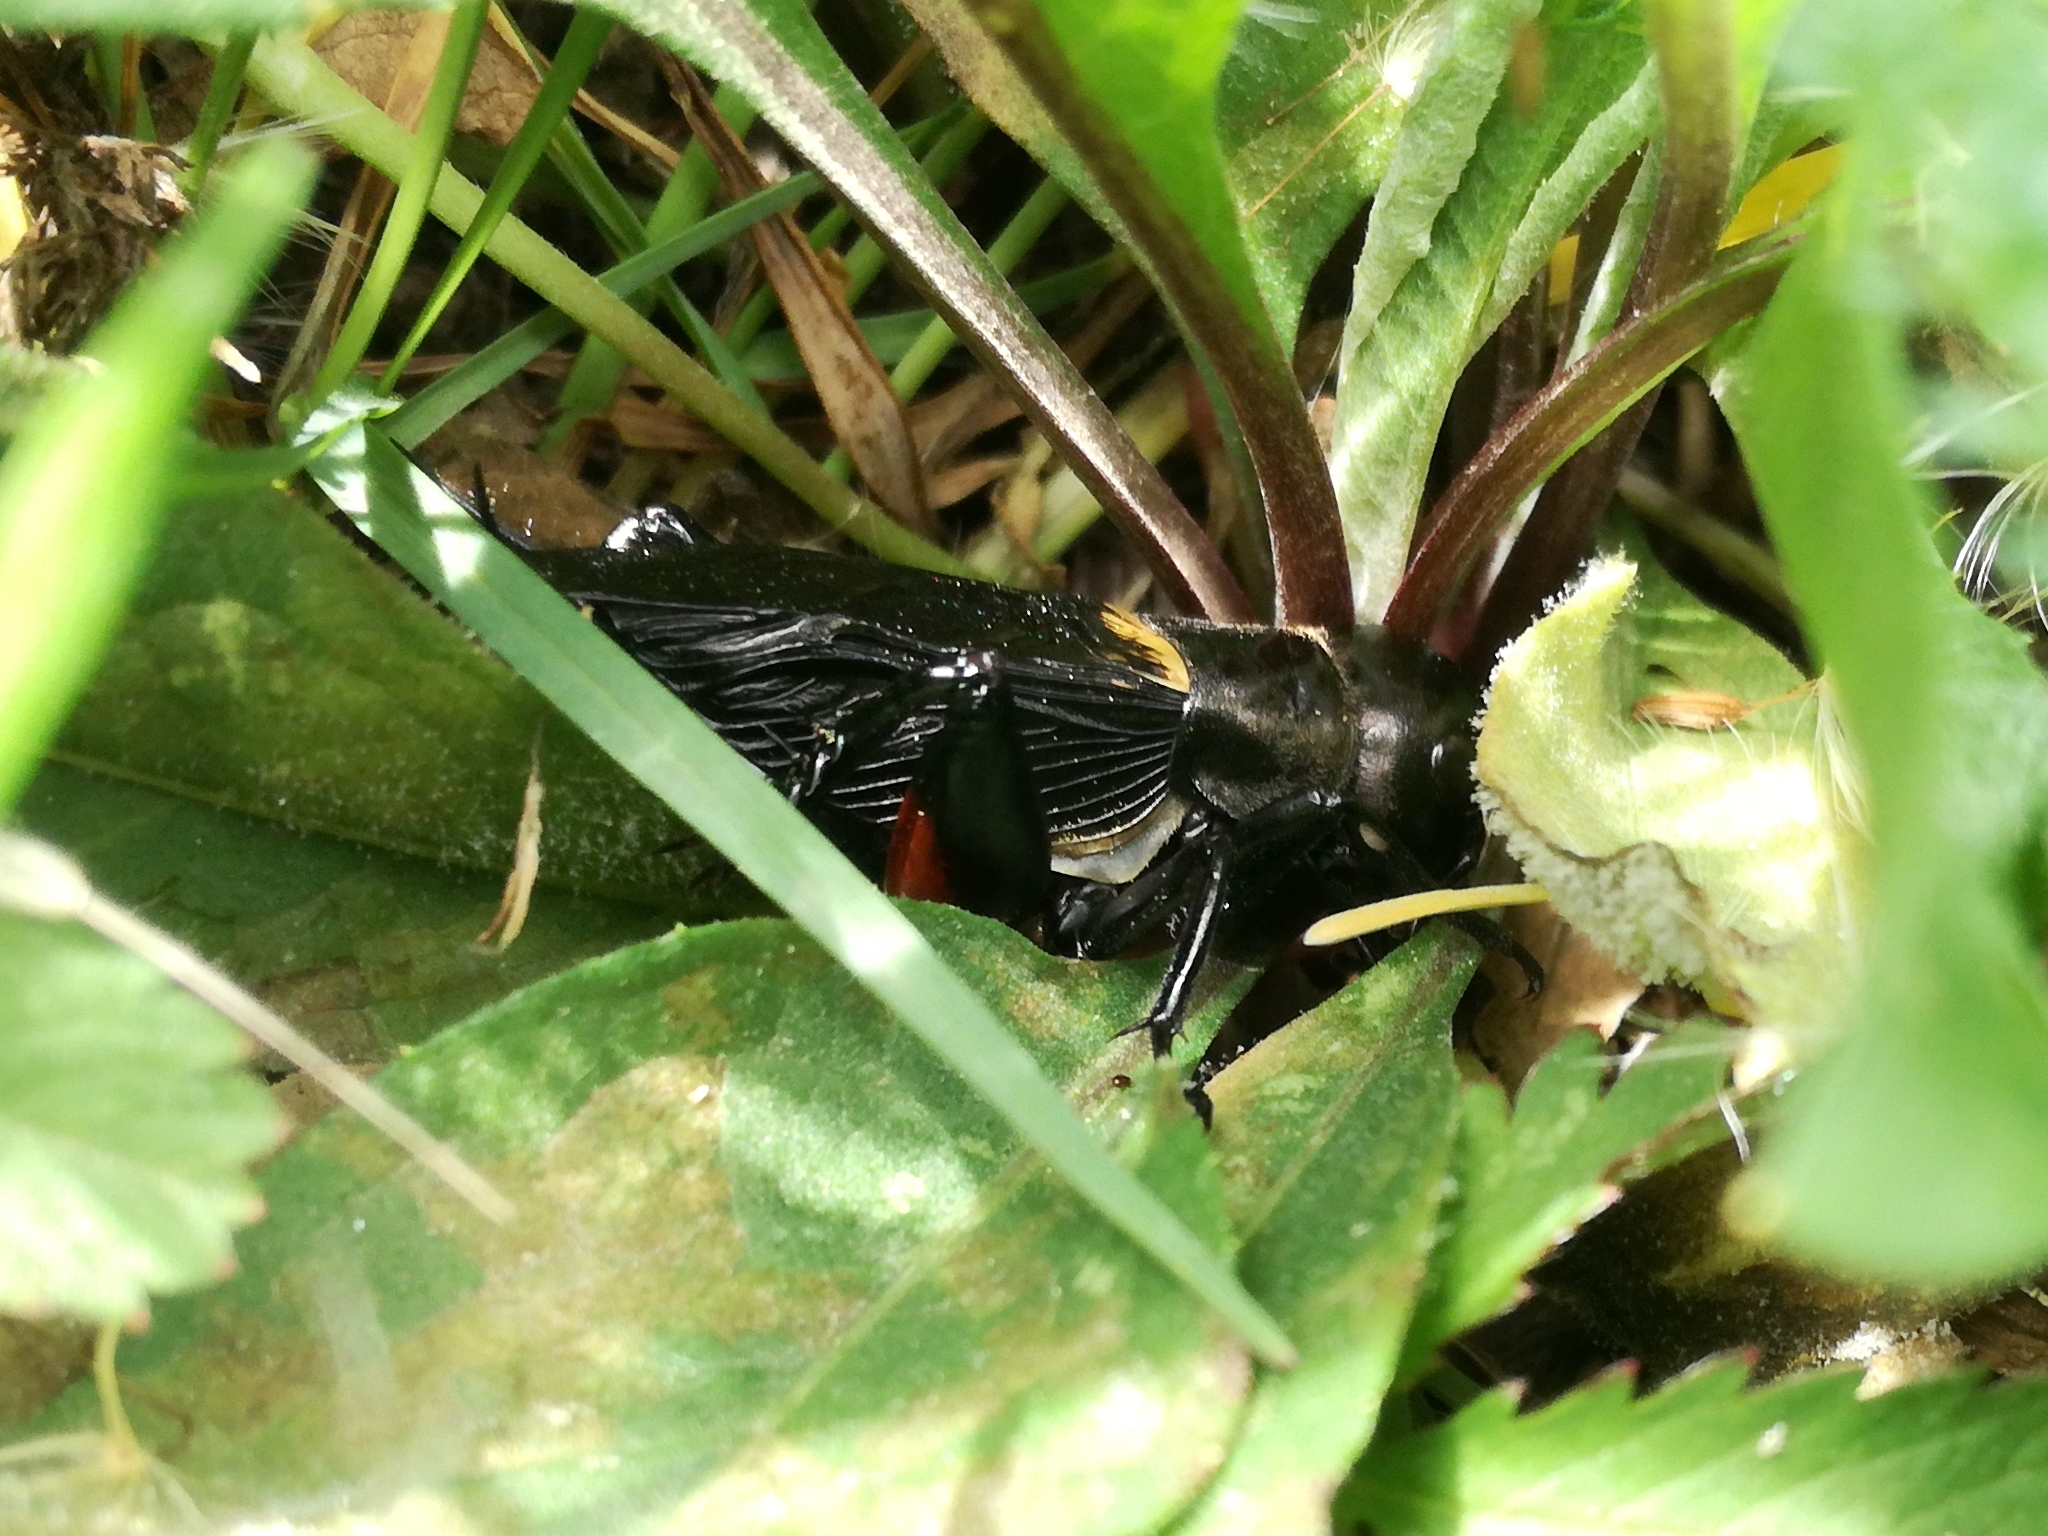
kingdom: Animalia
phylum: Arthropoda
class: Insecta
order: Orthoptera
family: Gryllidae
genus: Gryllus
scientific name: Gryllus campestris
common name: Field cricket
